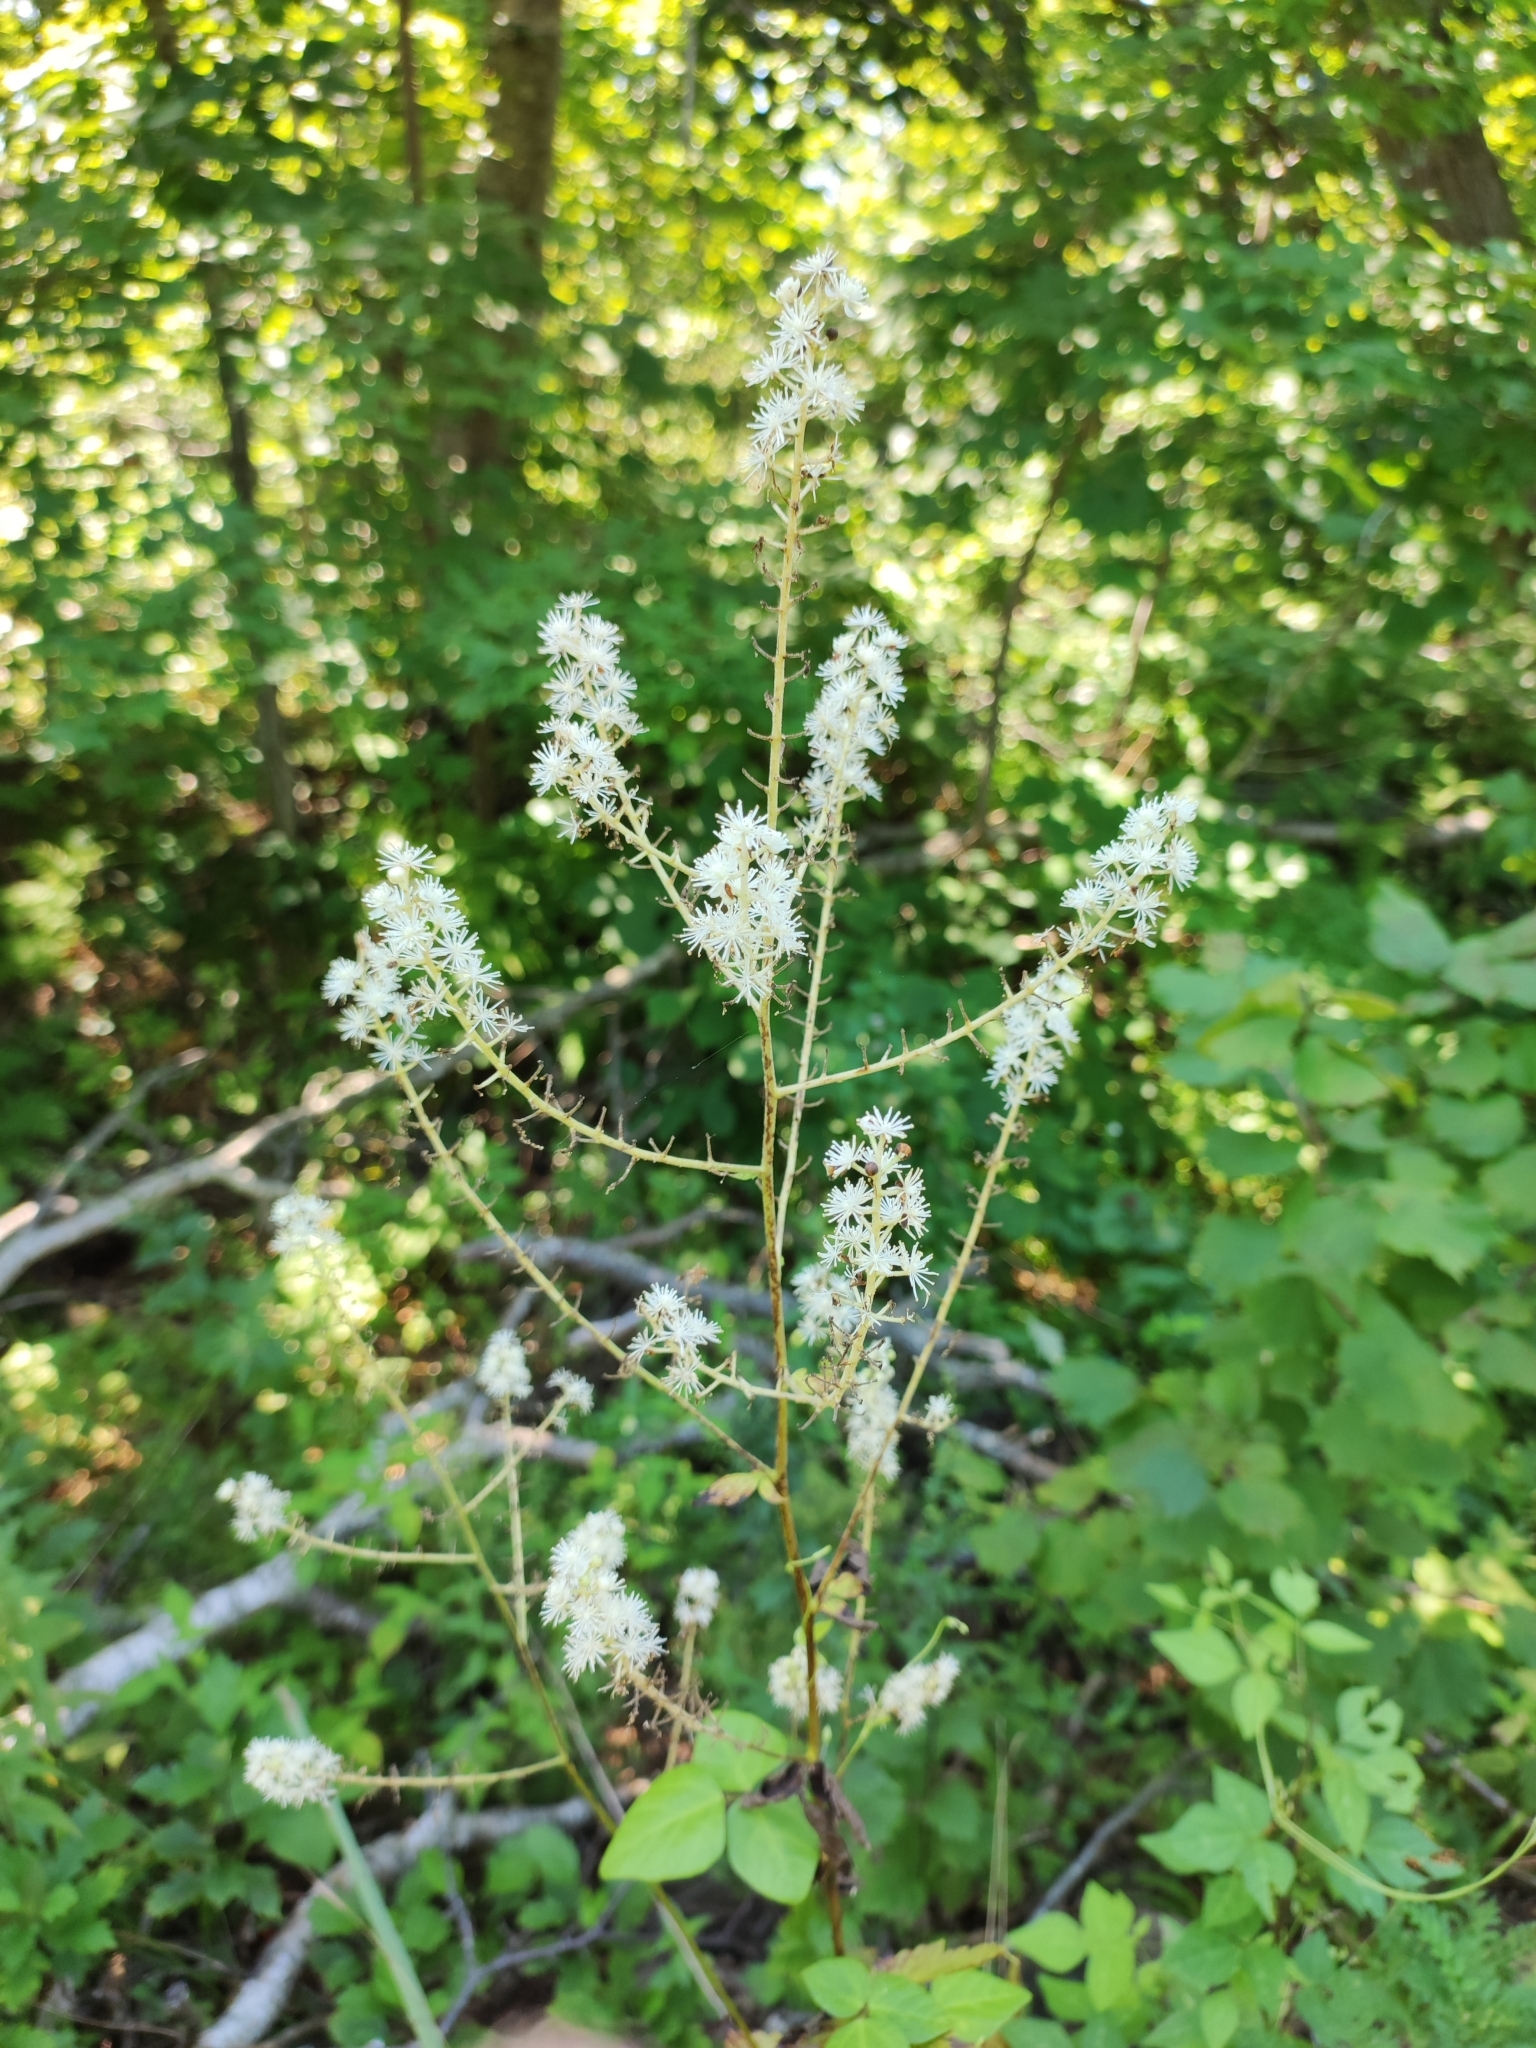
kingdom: Plantae
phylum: Tracheophyta
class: Magnoliopsida
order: Ranunculales
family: Ranunculaceae
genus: Actaea
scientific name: Actaea simplex
